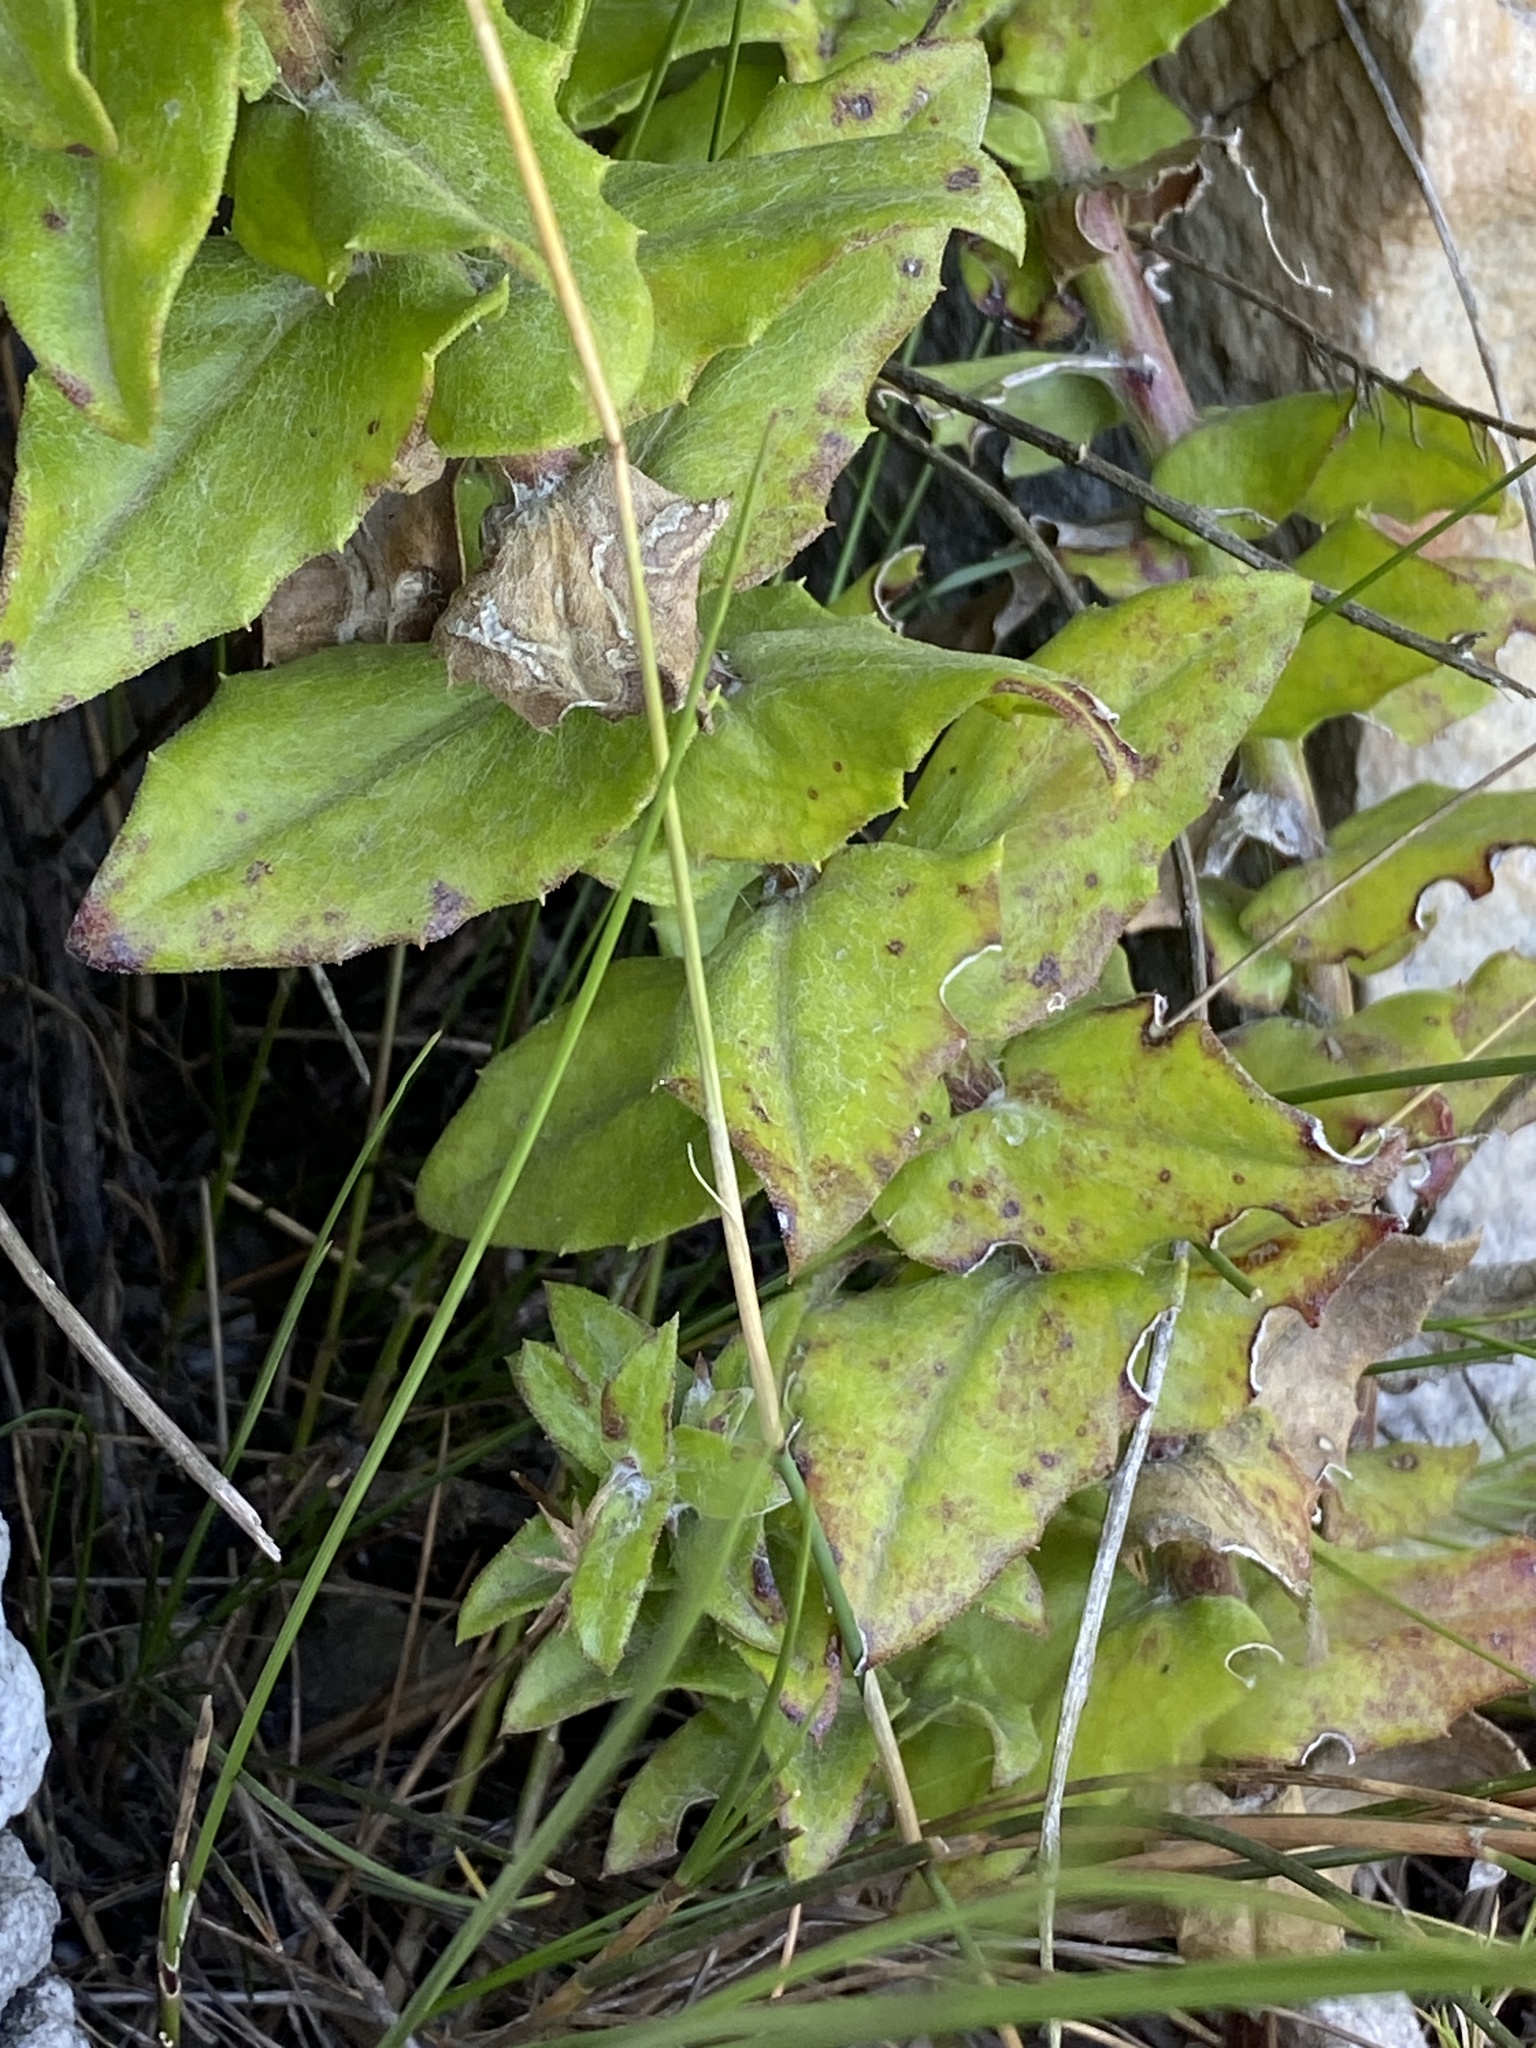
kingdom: Plantae
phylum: Tracheophyta
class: Magnoliopsida
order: Asterales
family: Asteraceae
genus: Osteospermum
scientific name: Osteospermum ilicifolium
